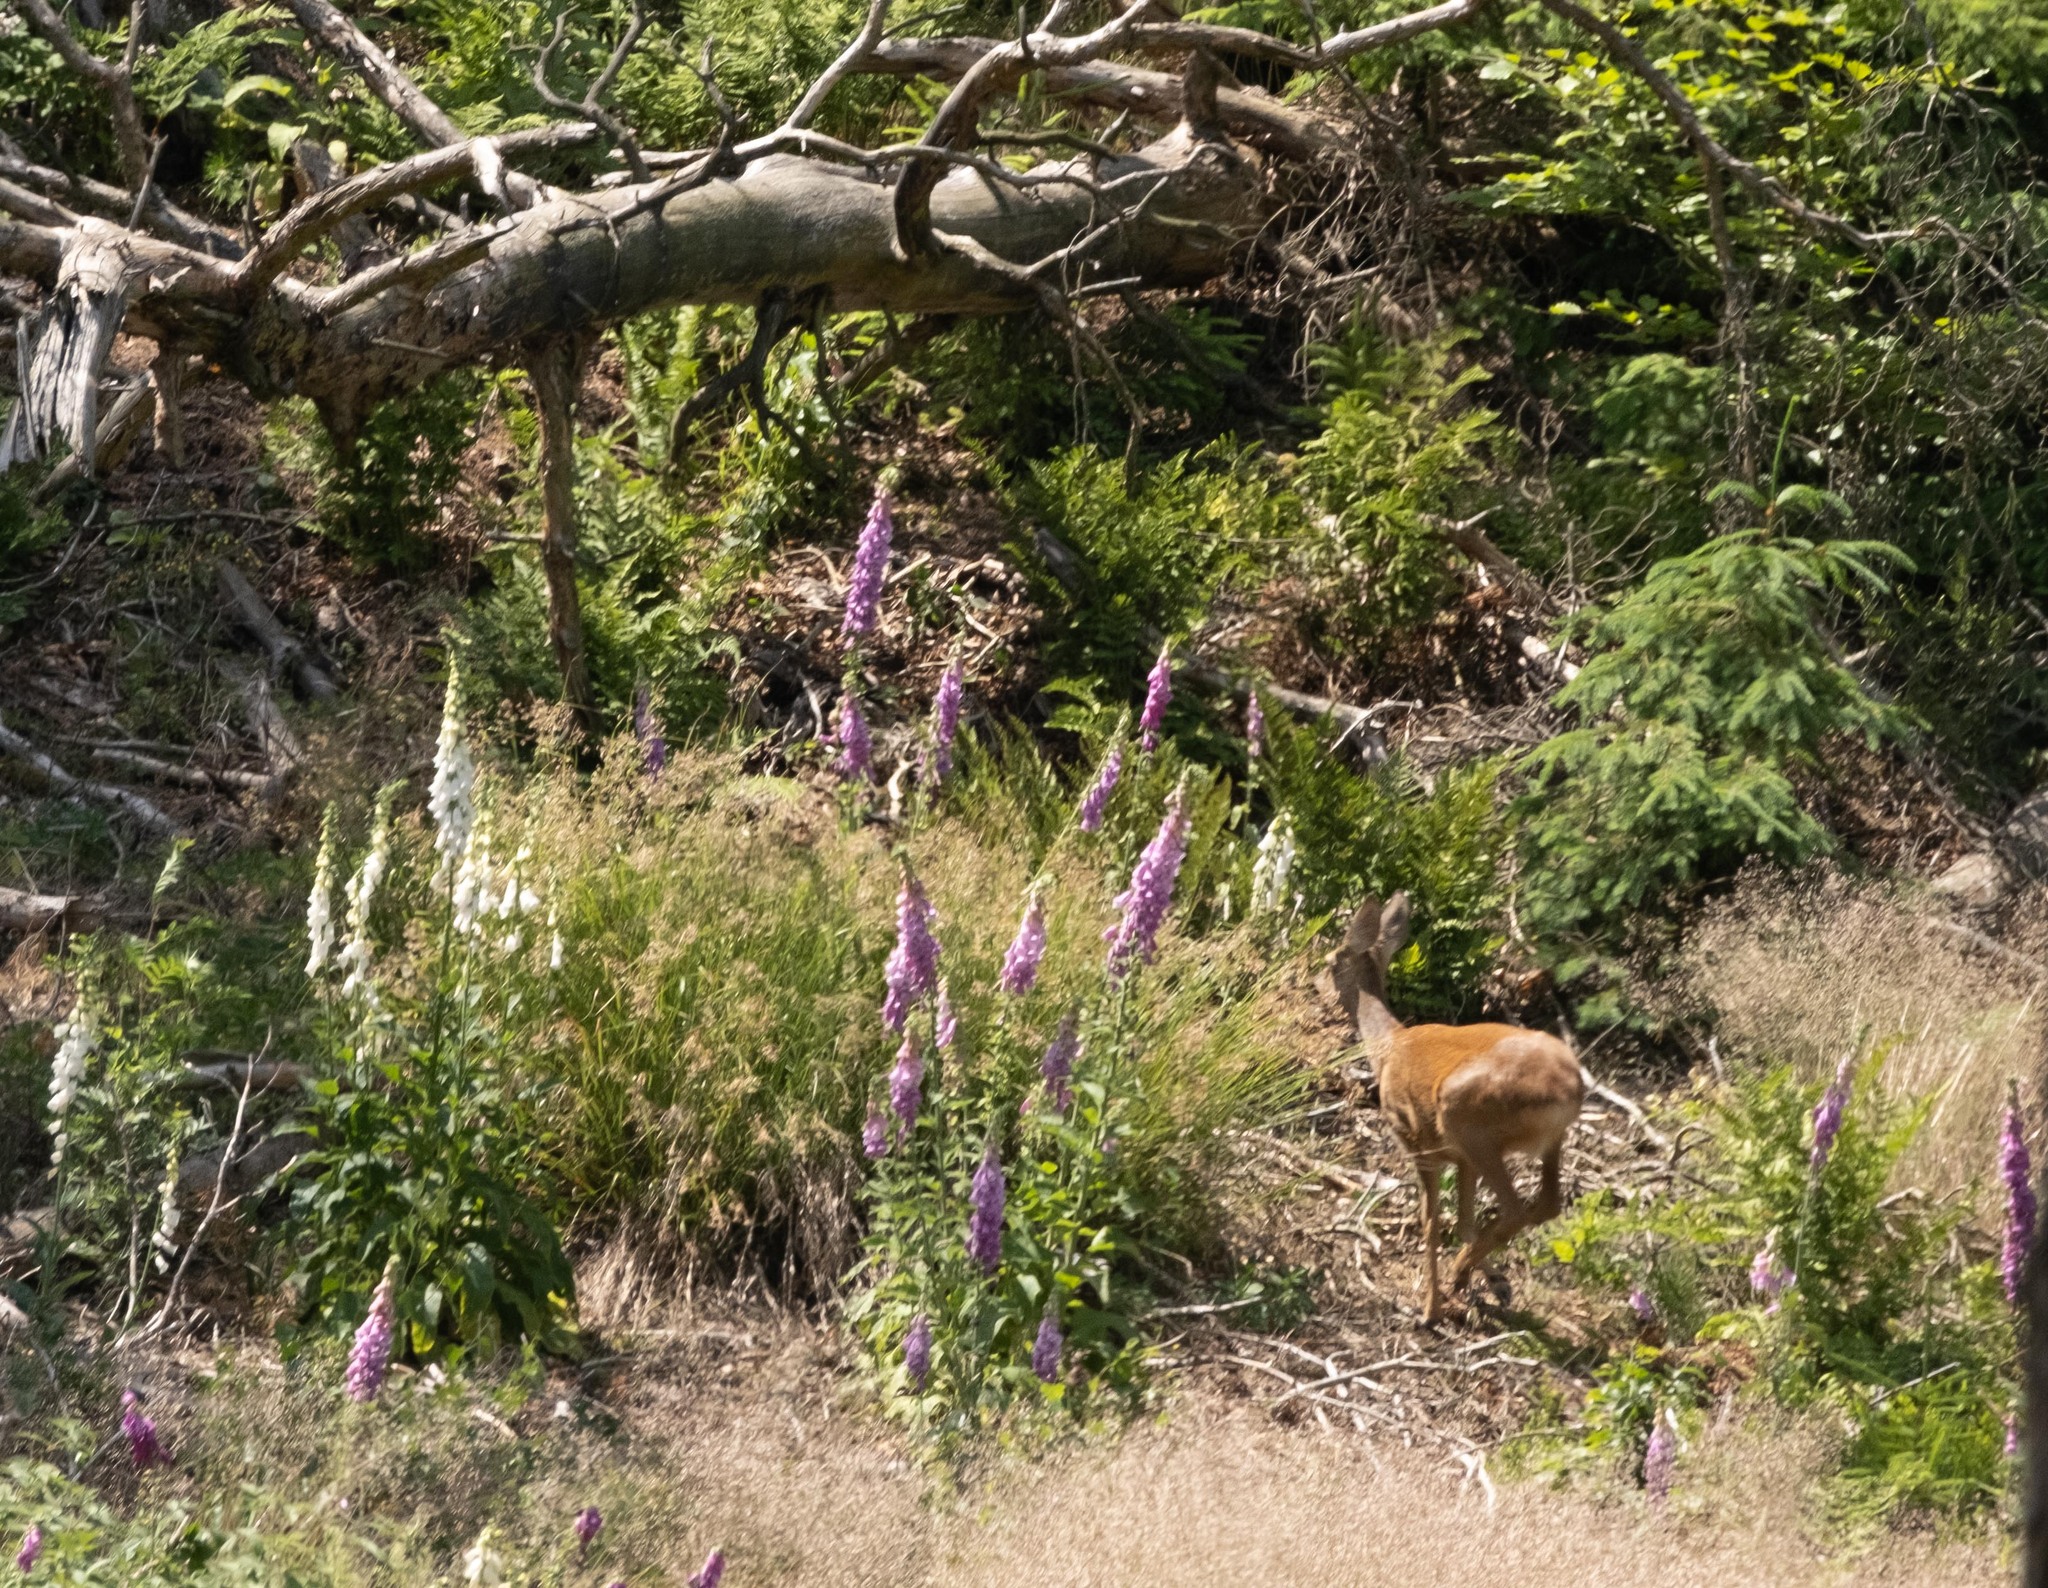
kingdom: Animalia
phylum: Chordata
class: Mammalia
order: Artiodactyla
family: Cervidae
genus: Capreolus
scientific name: Capreolus capreolus
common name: Western roe deer
